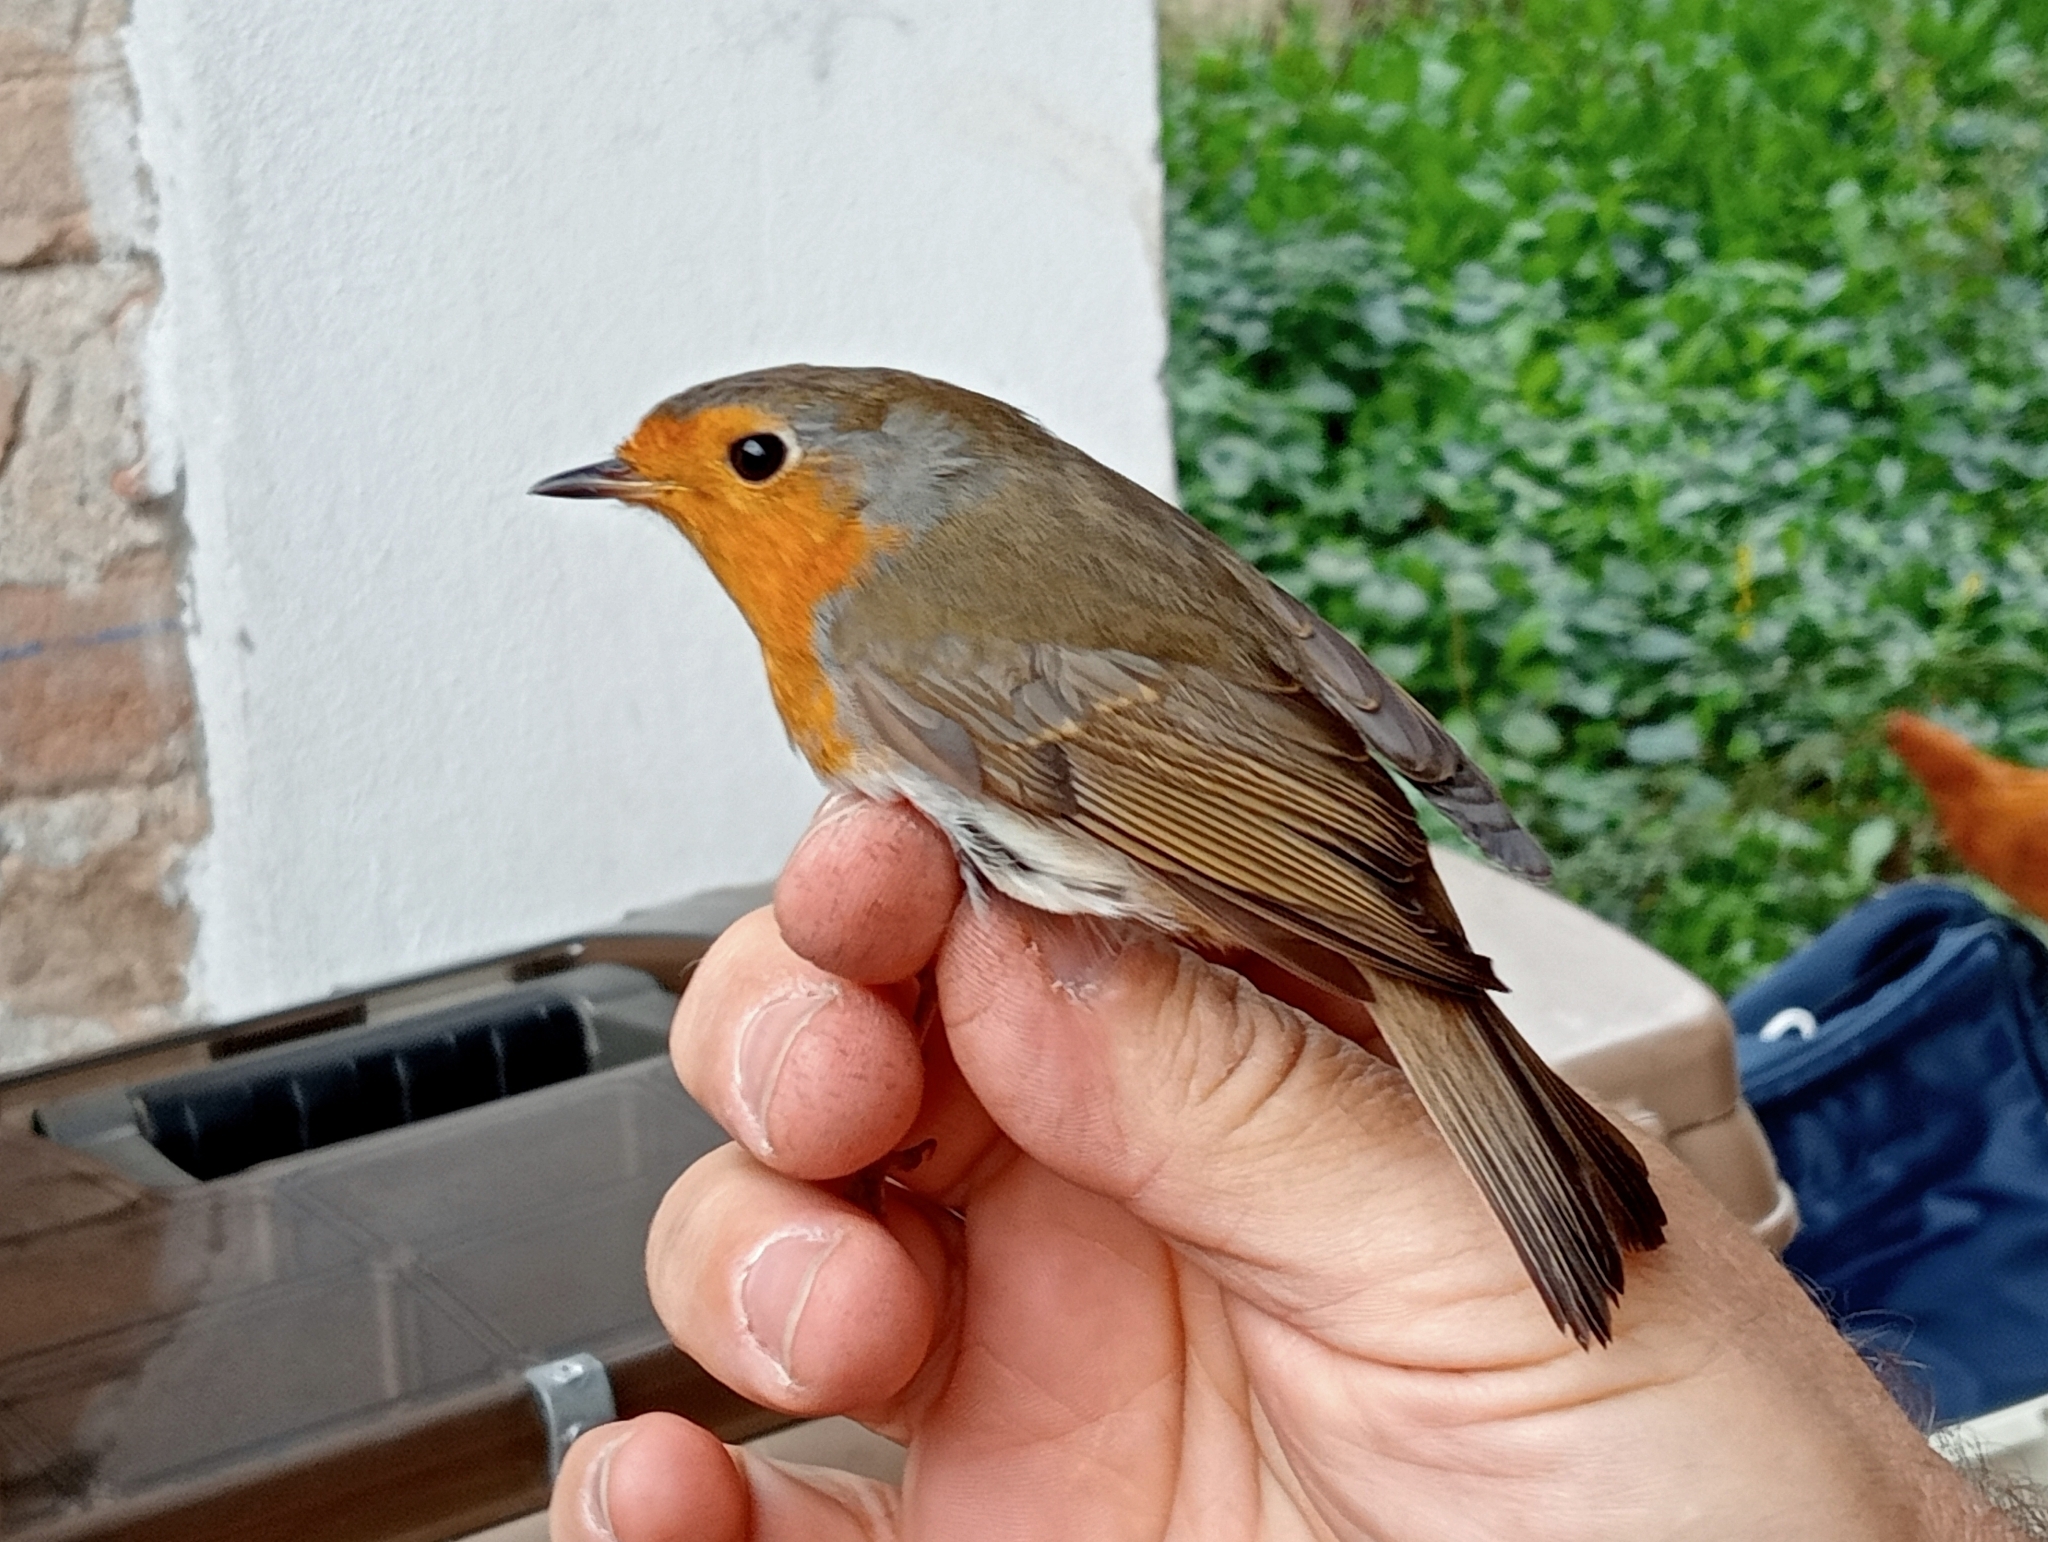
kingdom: Animalia
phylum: Chordata
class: Aves
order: Passeriformes
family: Muscicapidae
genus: Erithacus
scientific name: Erithacus rubecula
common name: European robin
